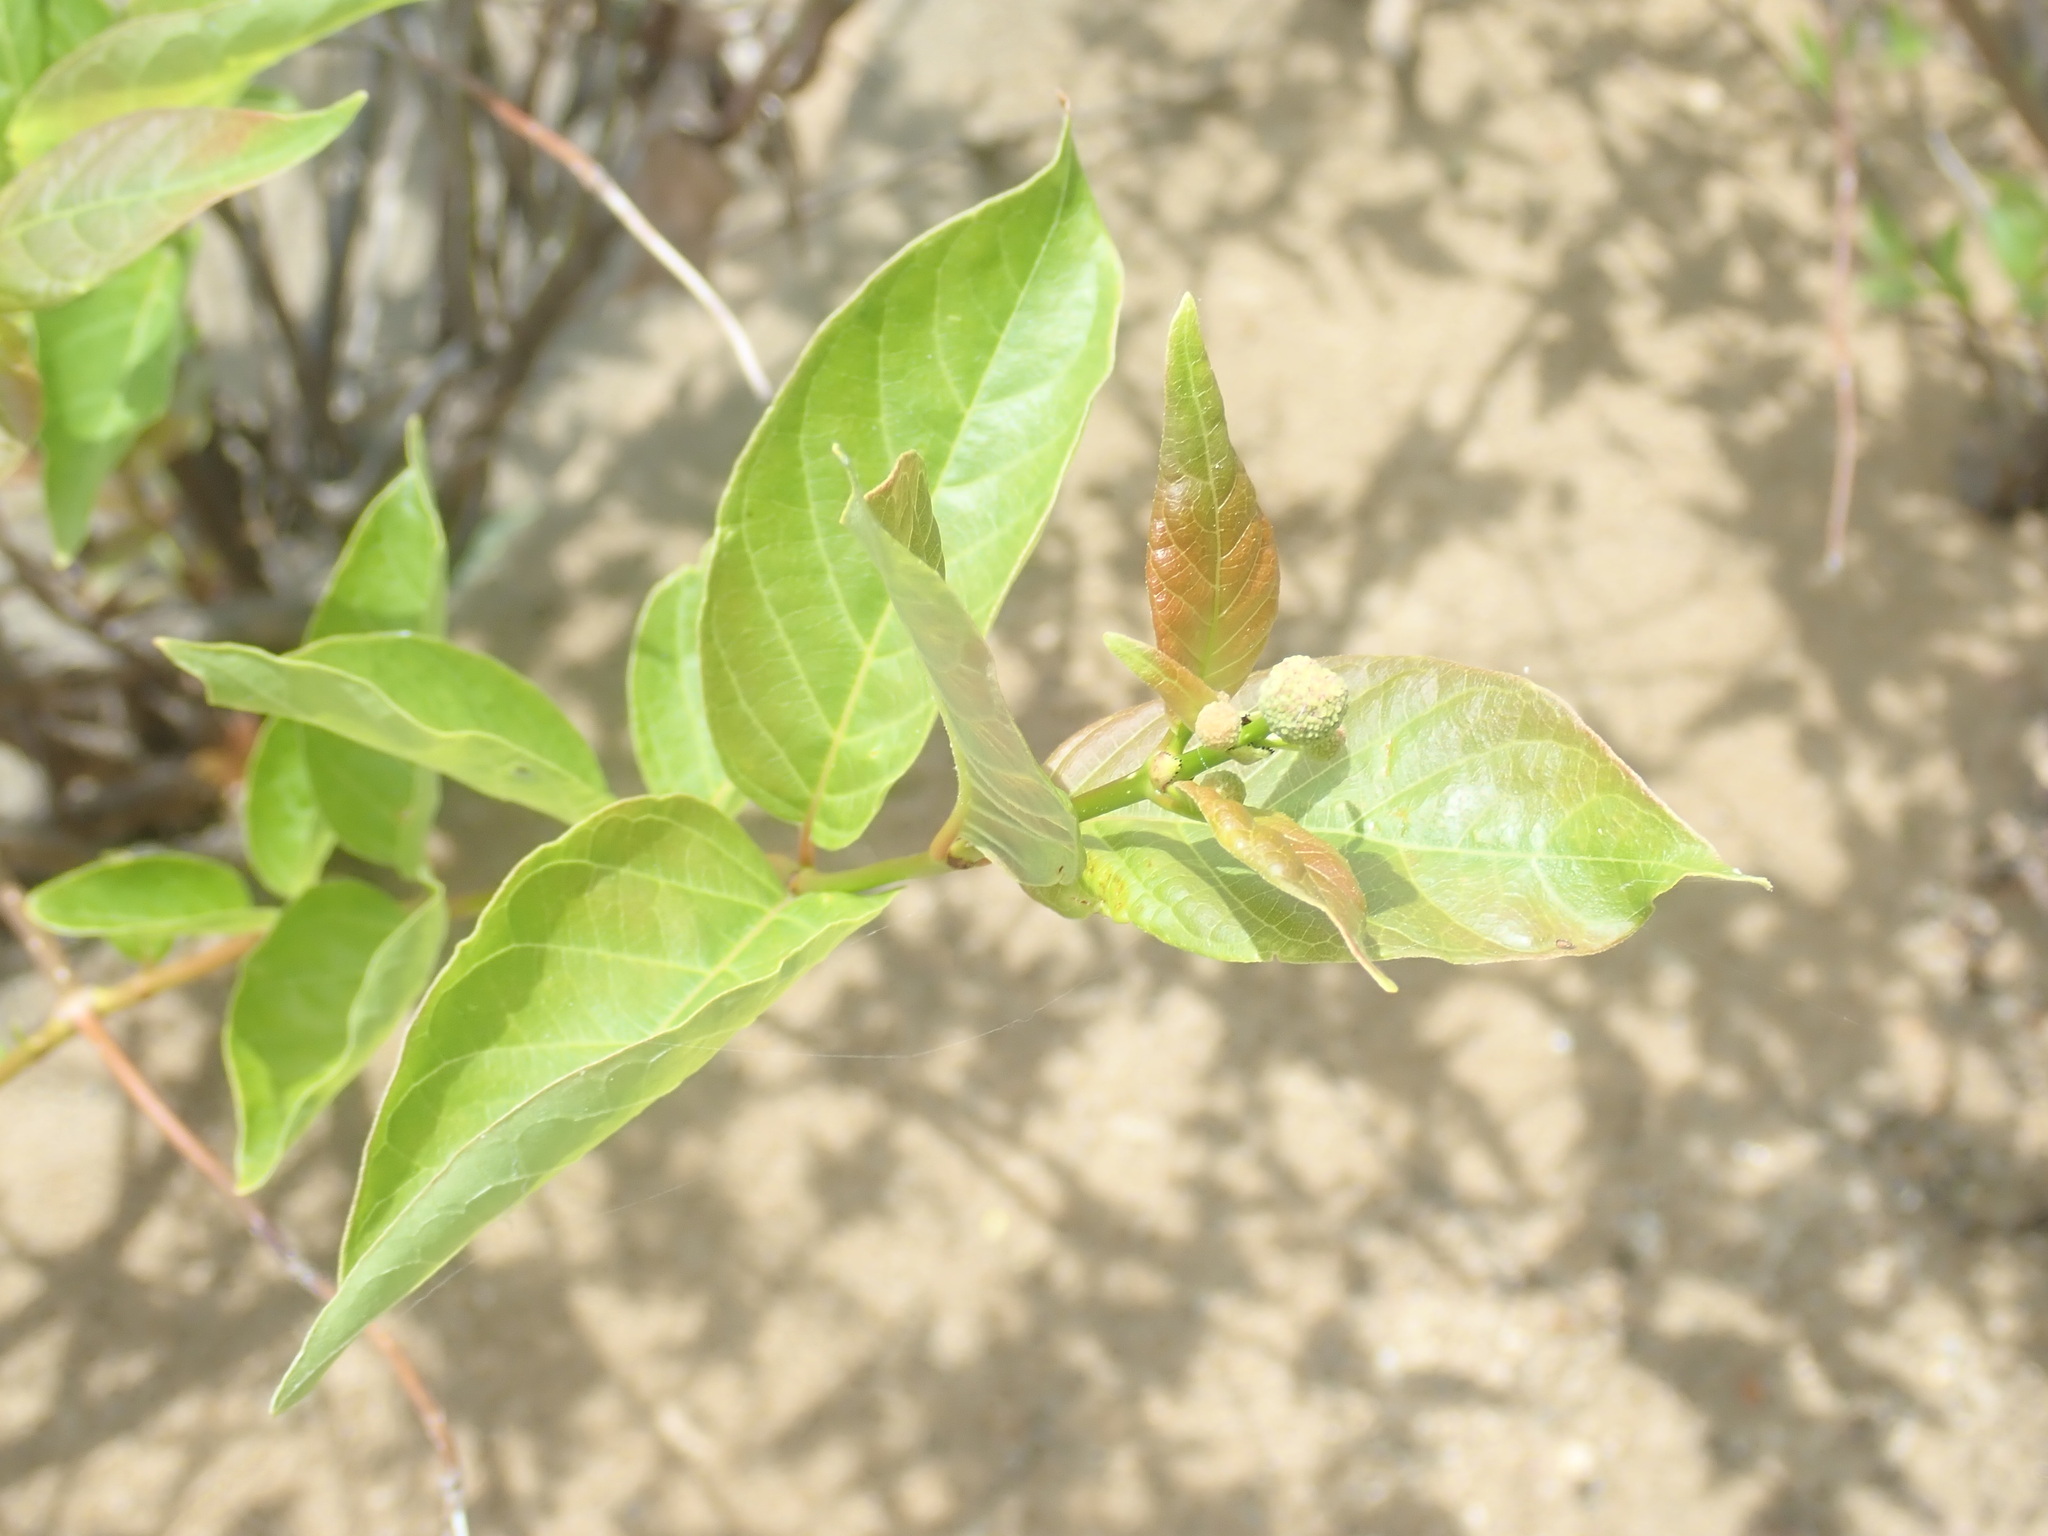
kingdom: Plantae
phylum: Tracheophyta
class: Magnoliopsida
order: Gentianales
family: Rubiaceae
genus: Cephalanthus
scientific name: Cephalanthus occidentalis
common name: Button-willow
